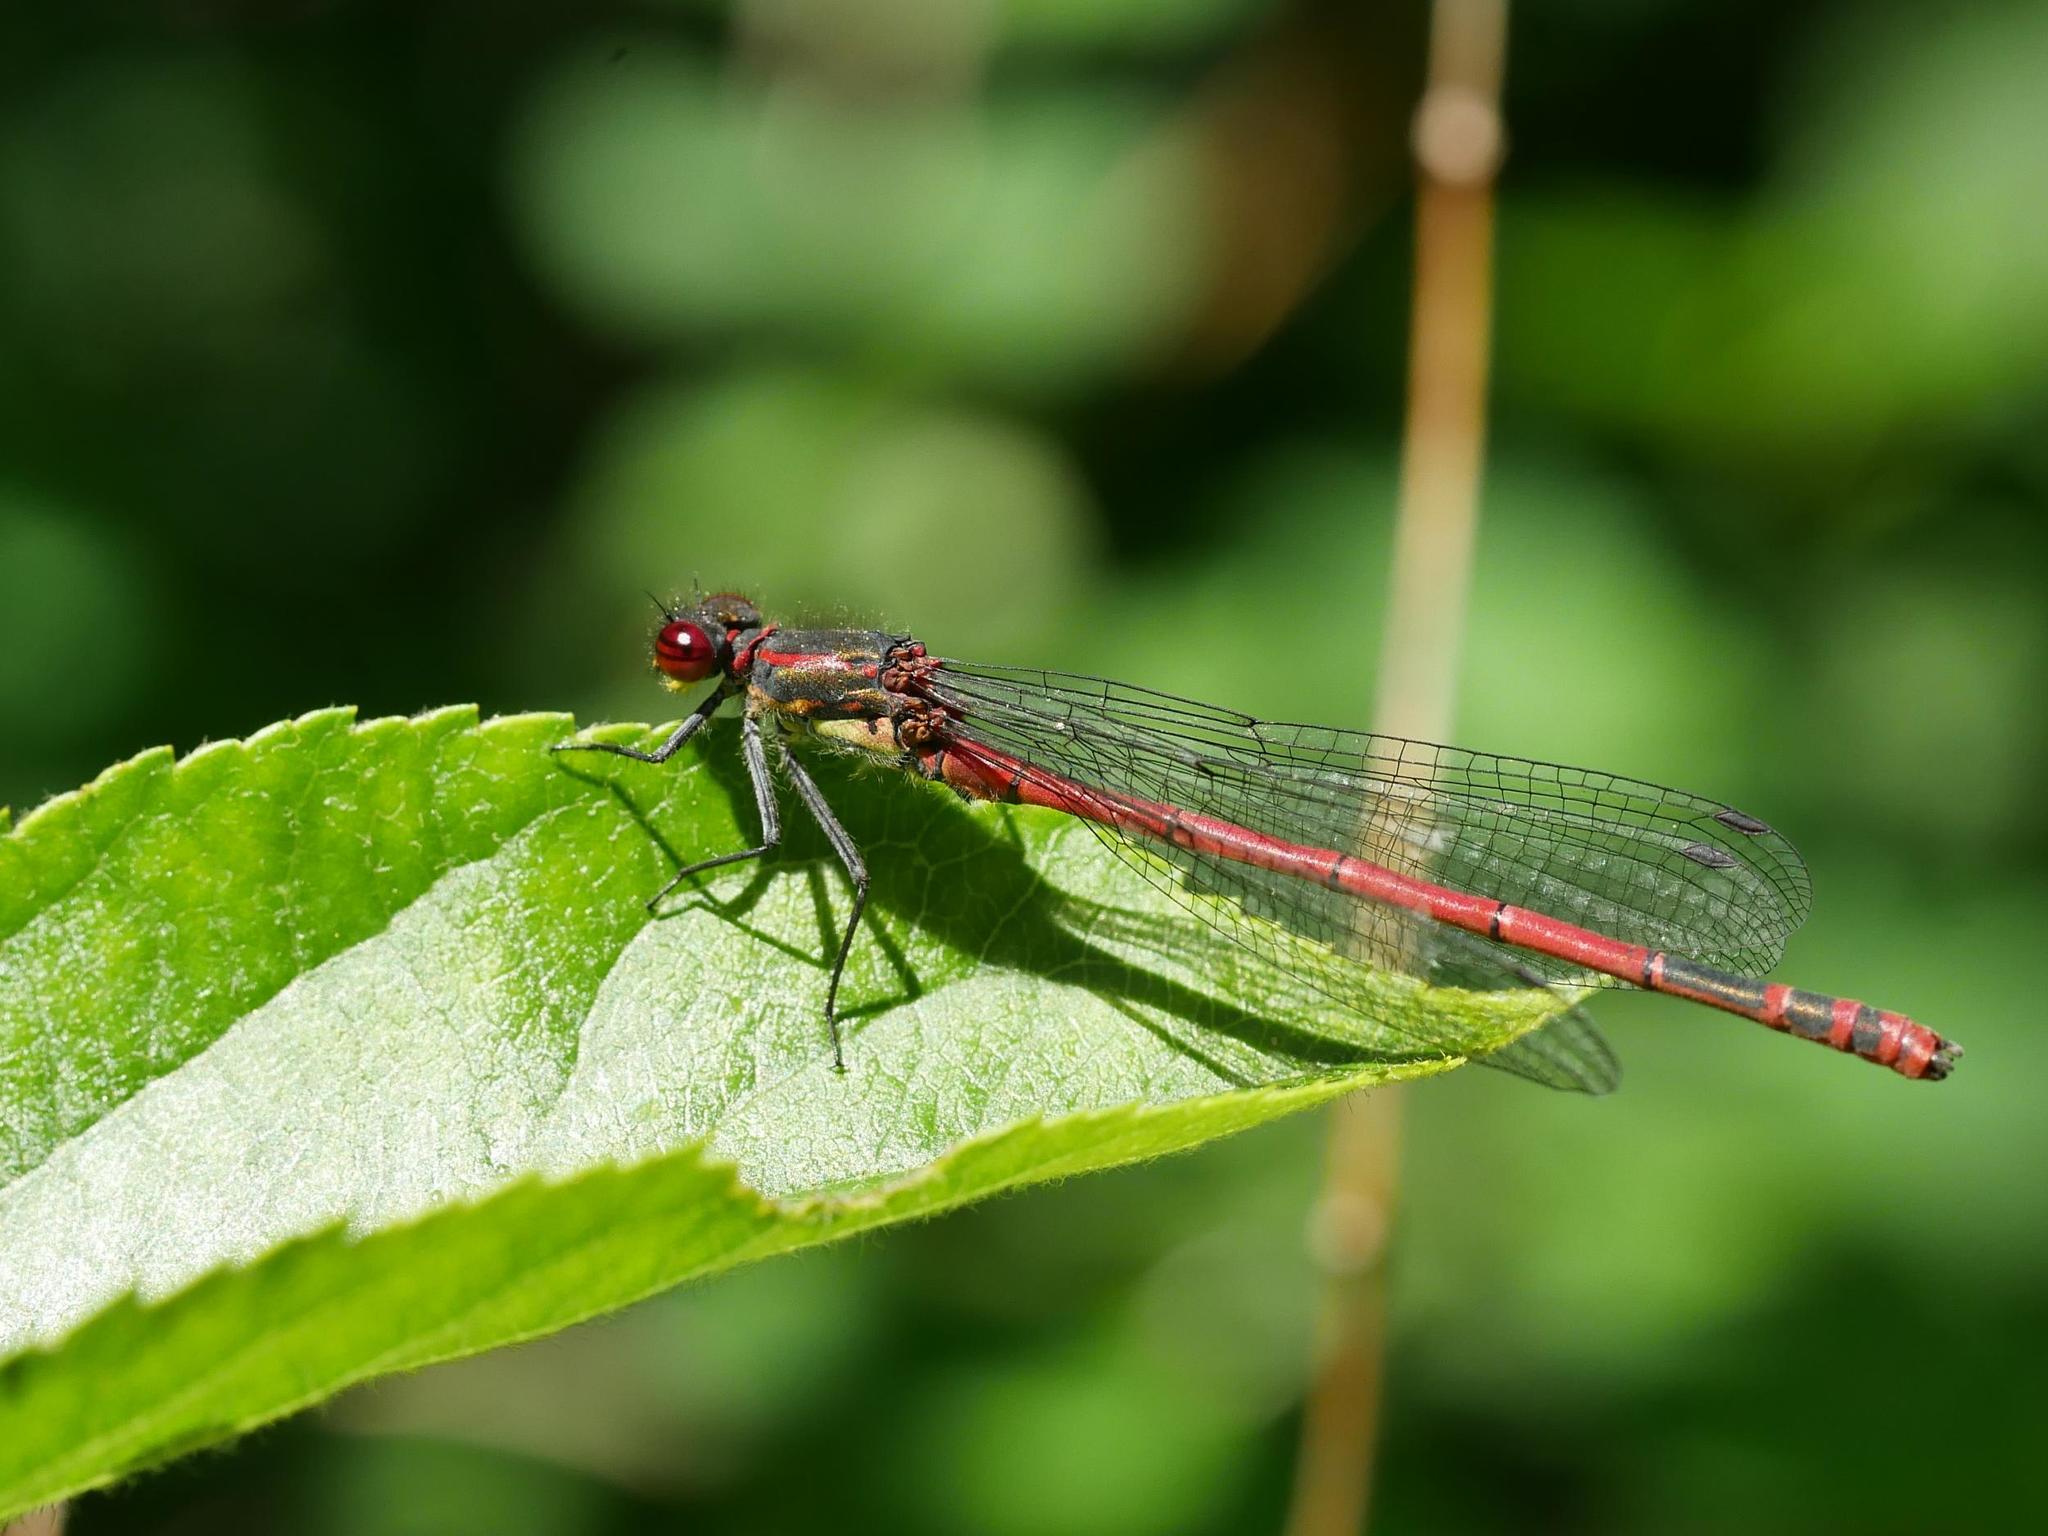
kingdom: Animalia
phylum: Arthropoda
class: Insecta
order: Odonata
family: Coenagrionidae
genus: Pyrrhosoma
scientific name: Pyrrhosoma nymphula
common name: Large red damsel
